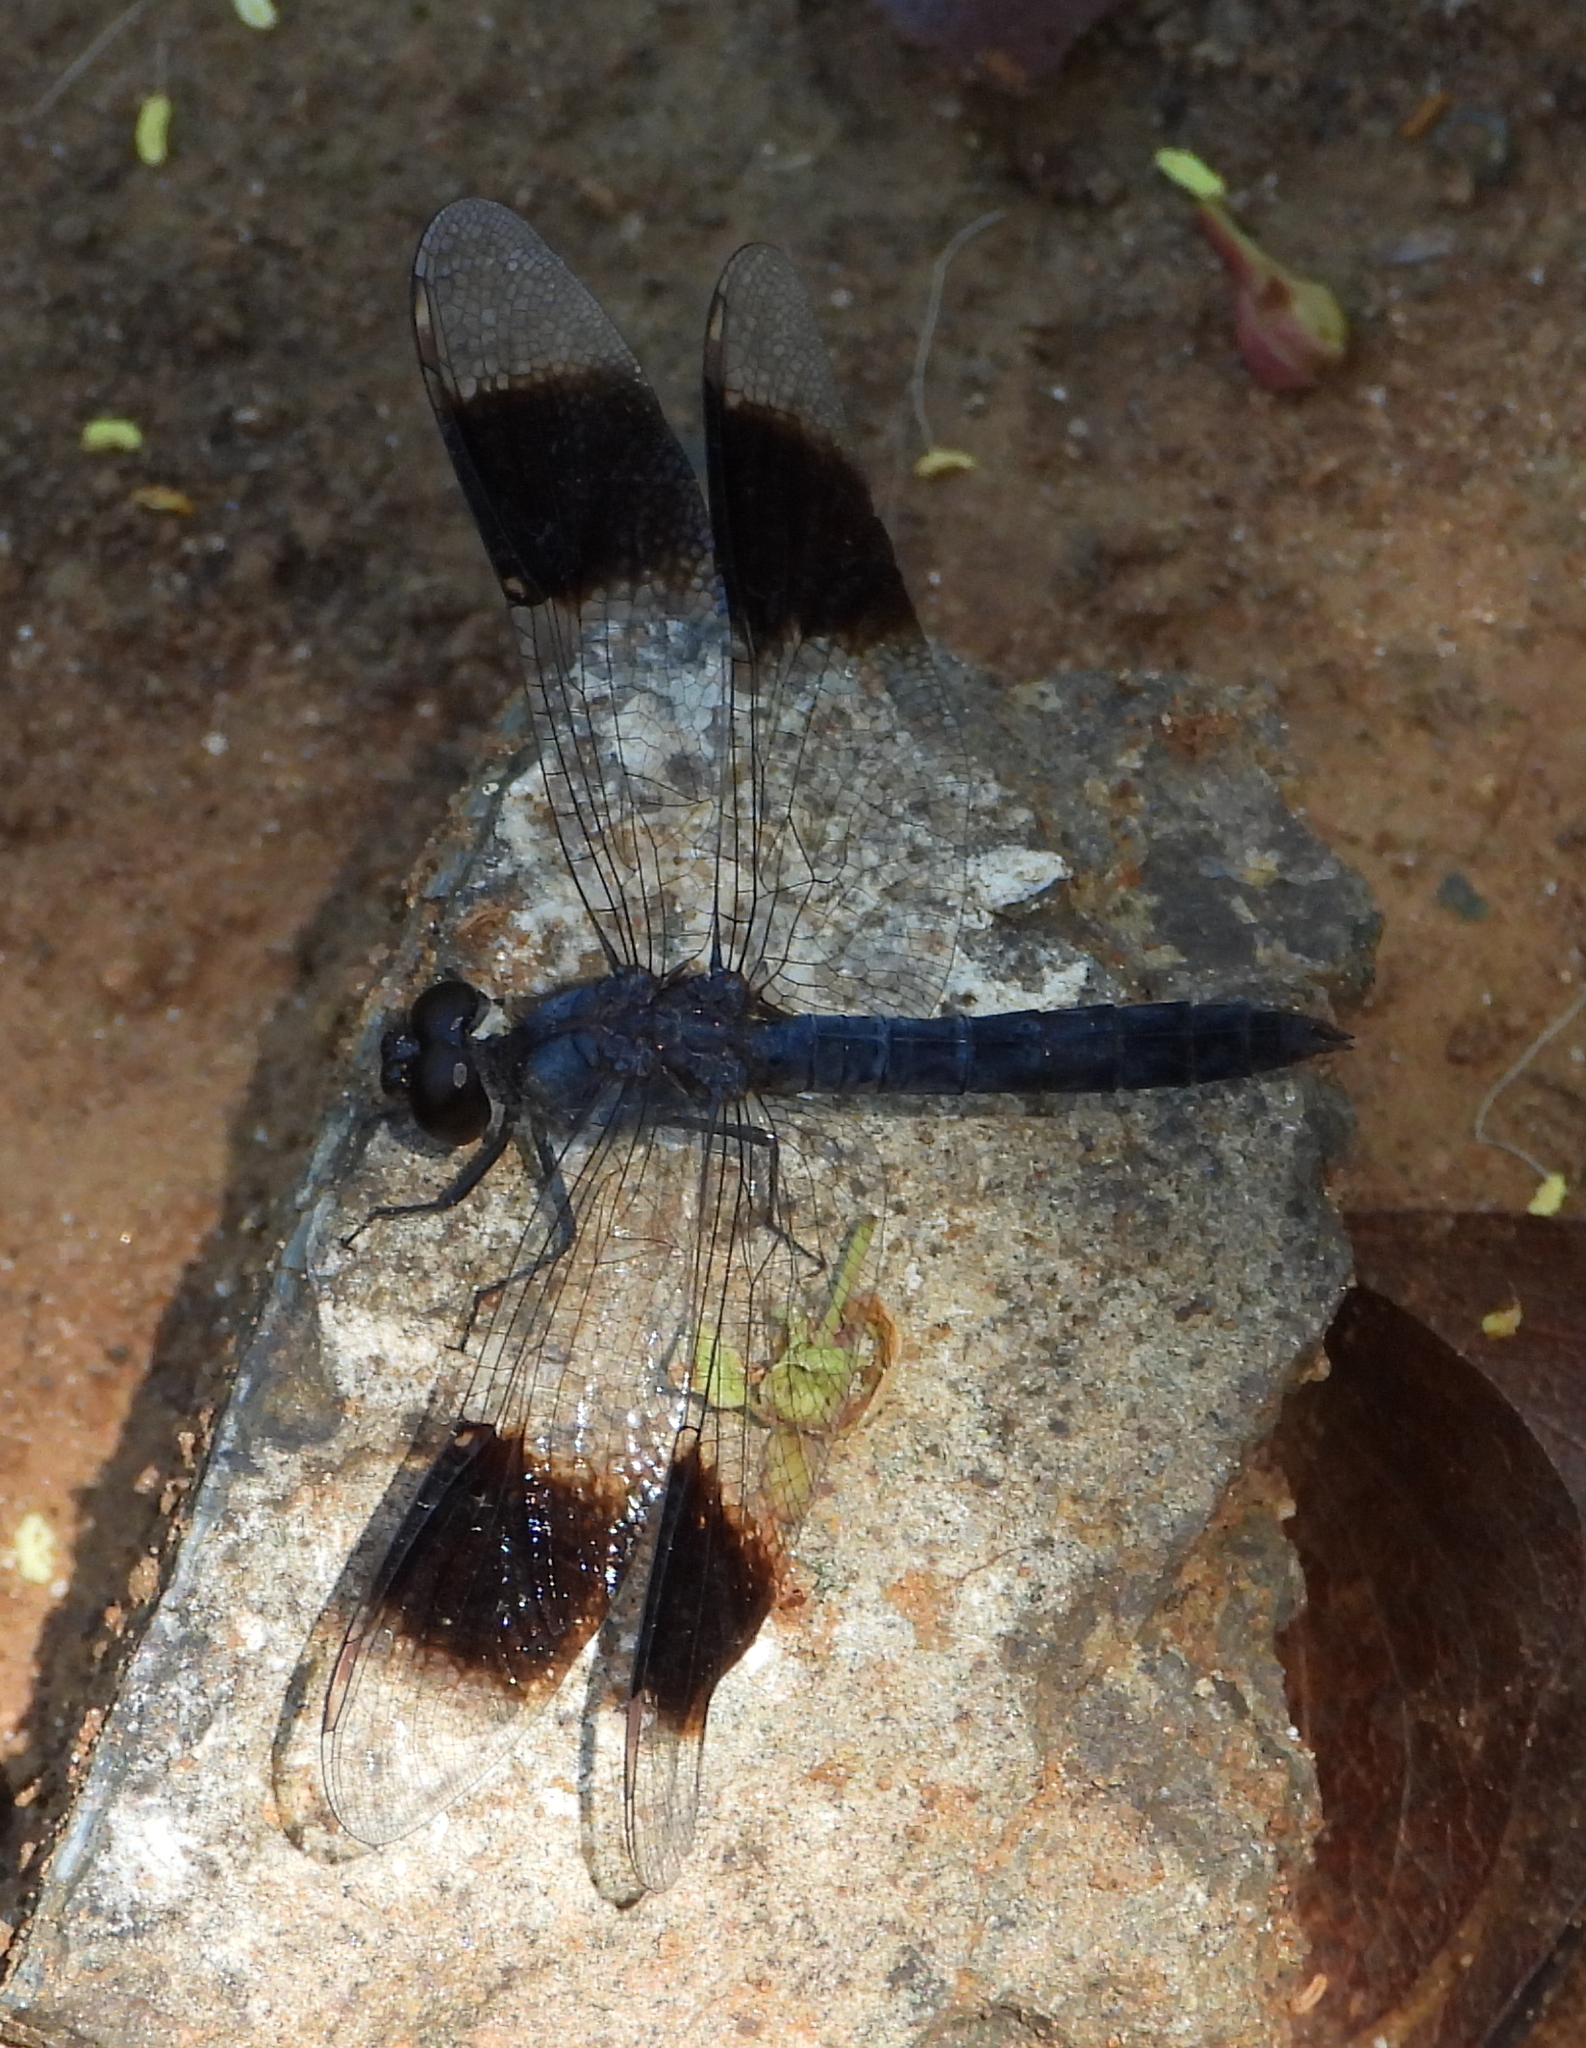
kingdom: Animalia
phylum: Arthropoda
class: Insecta
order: Odonata
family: Libellulidae
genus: Brachythemis
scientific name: Brachythemis leucosticta
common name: Banded groundling
